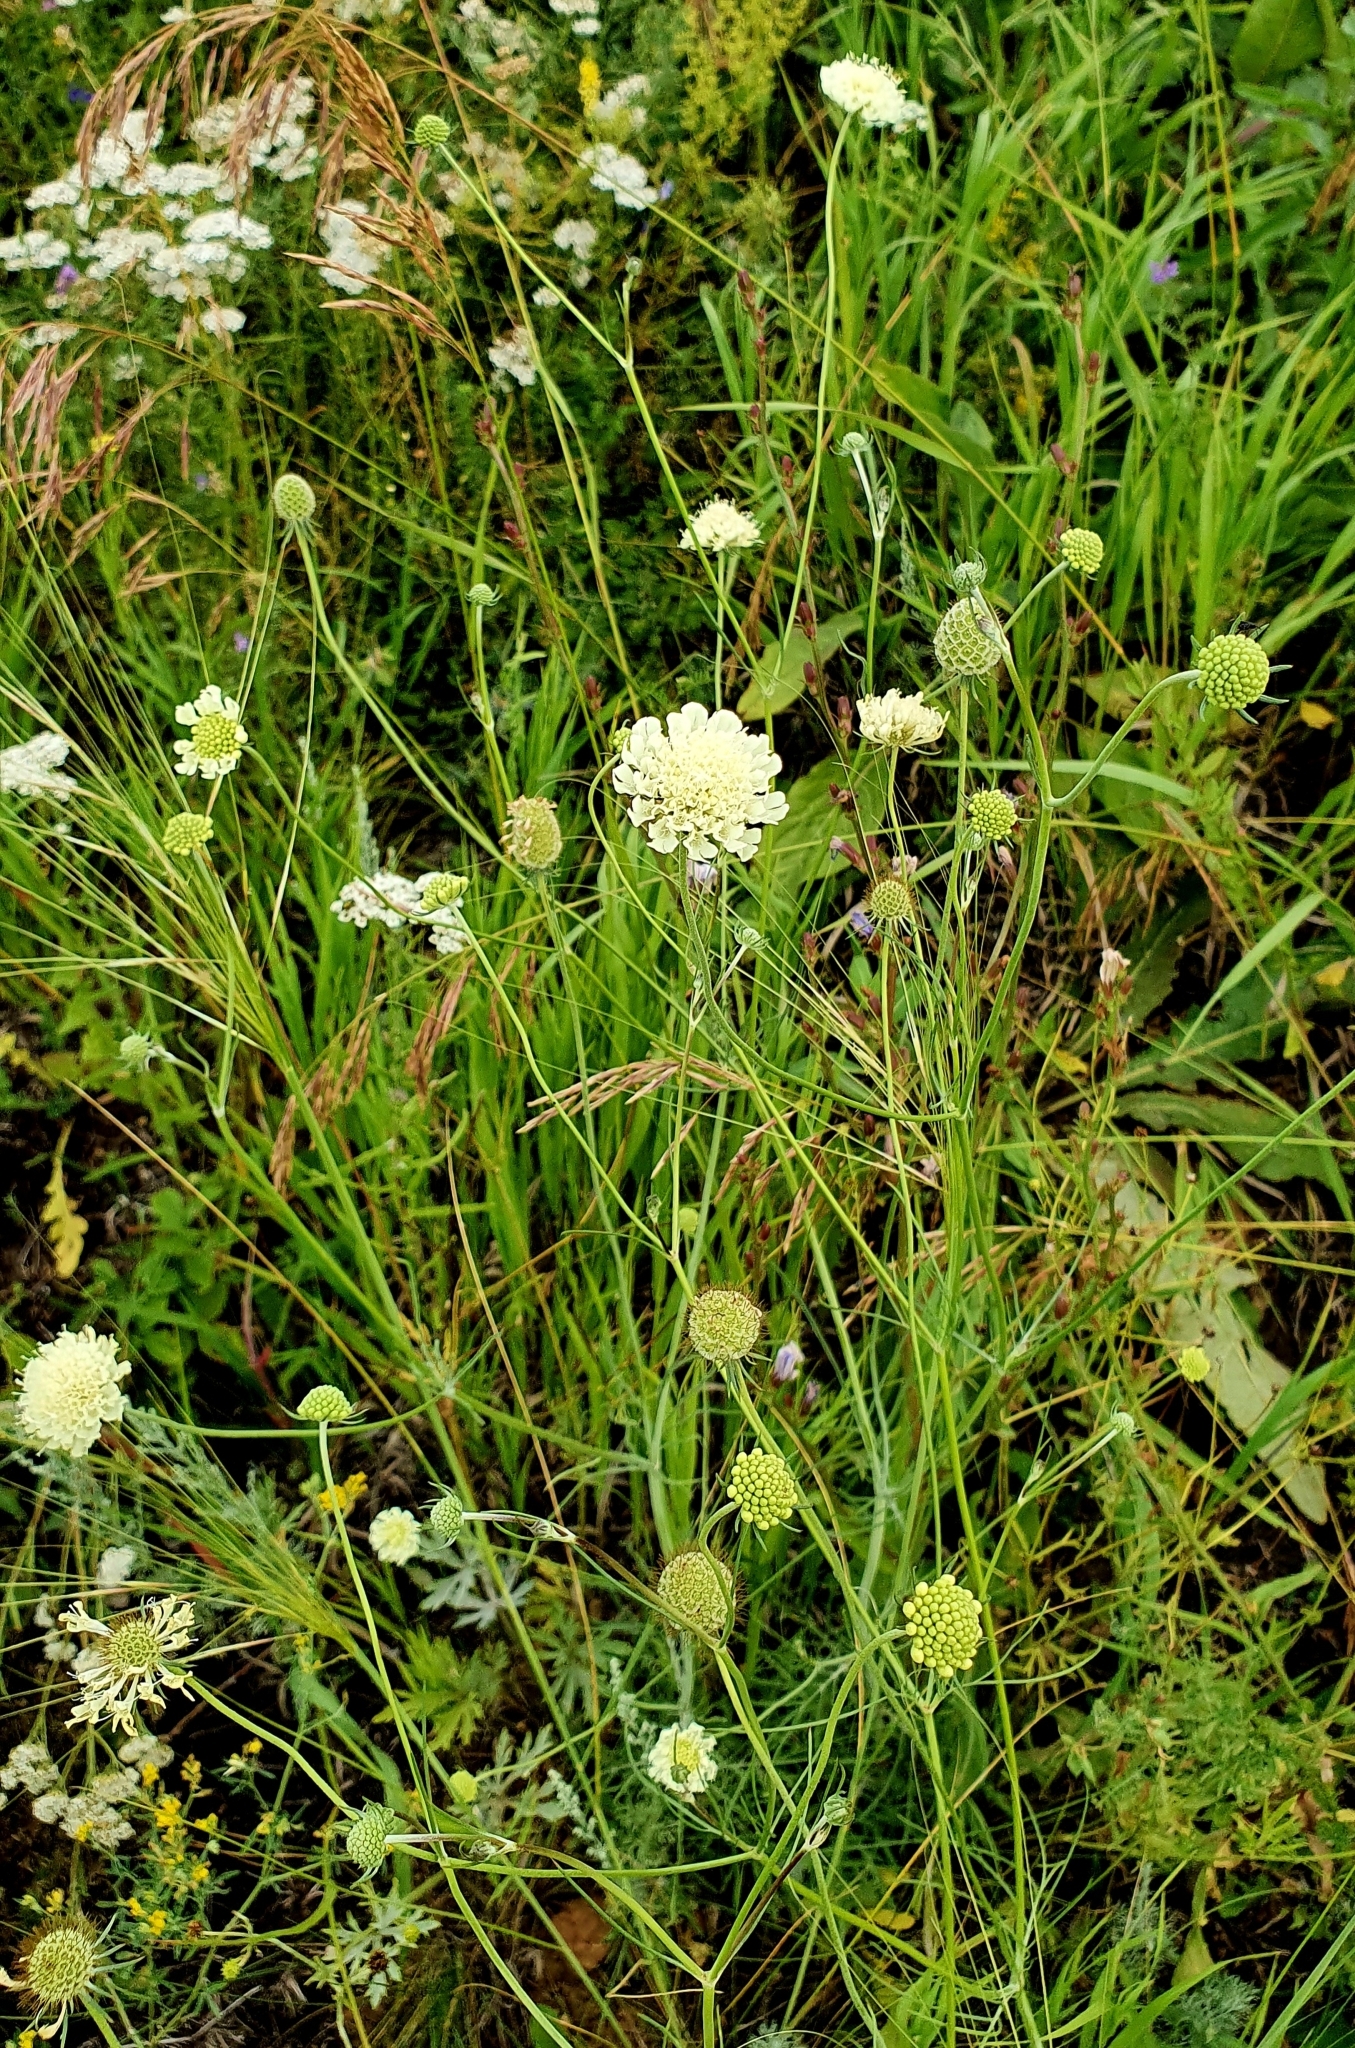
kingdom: Plantae
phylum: Tracheophyta
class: Magnoliopsida
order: Dipsacales
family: Caprifoliaceae
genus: Scabiosa
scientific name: Scabiosa ochroleuca
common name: Cream pincushions
